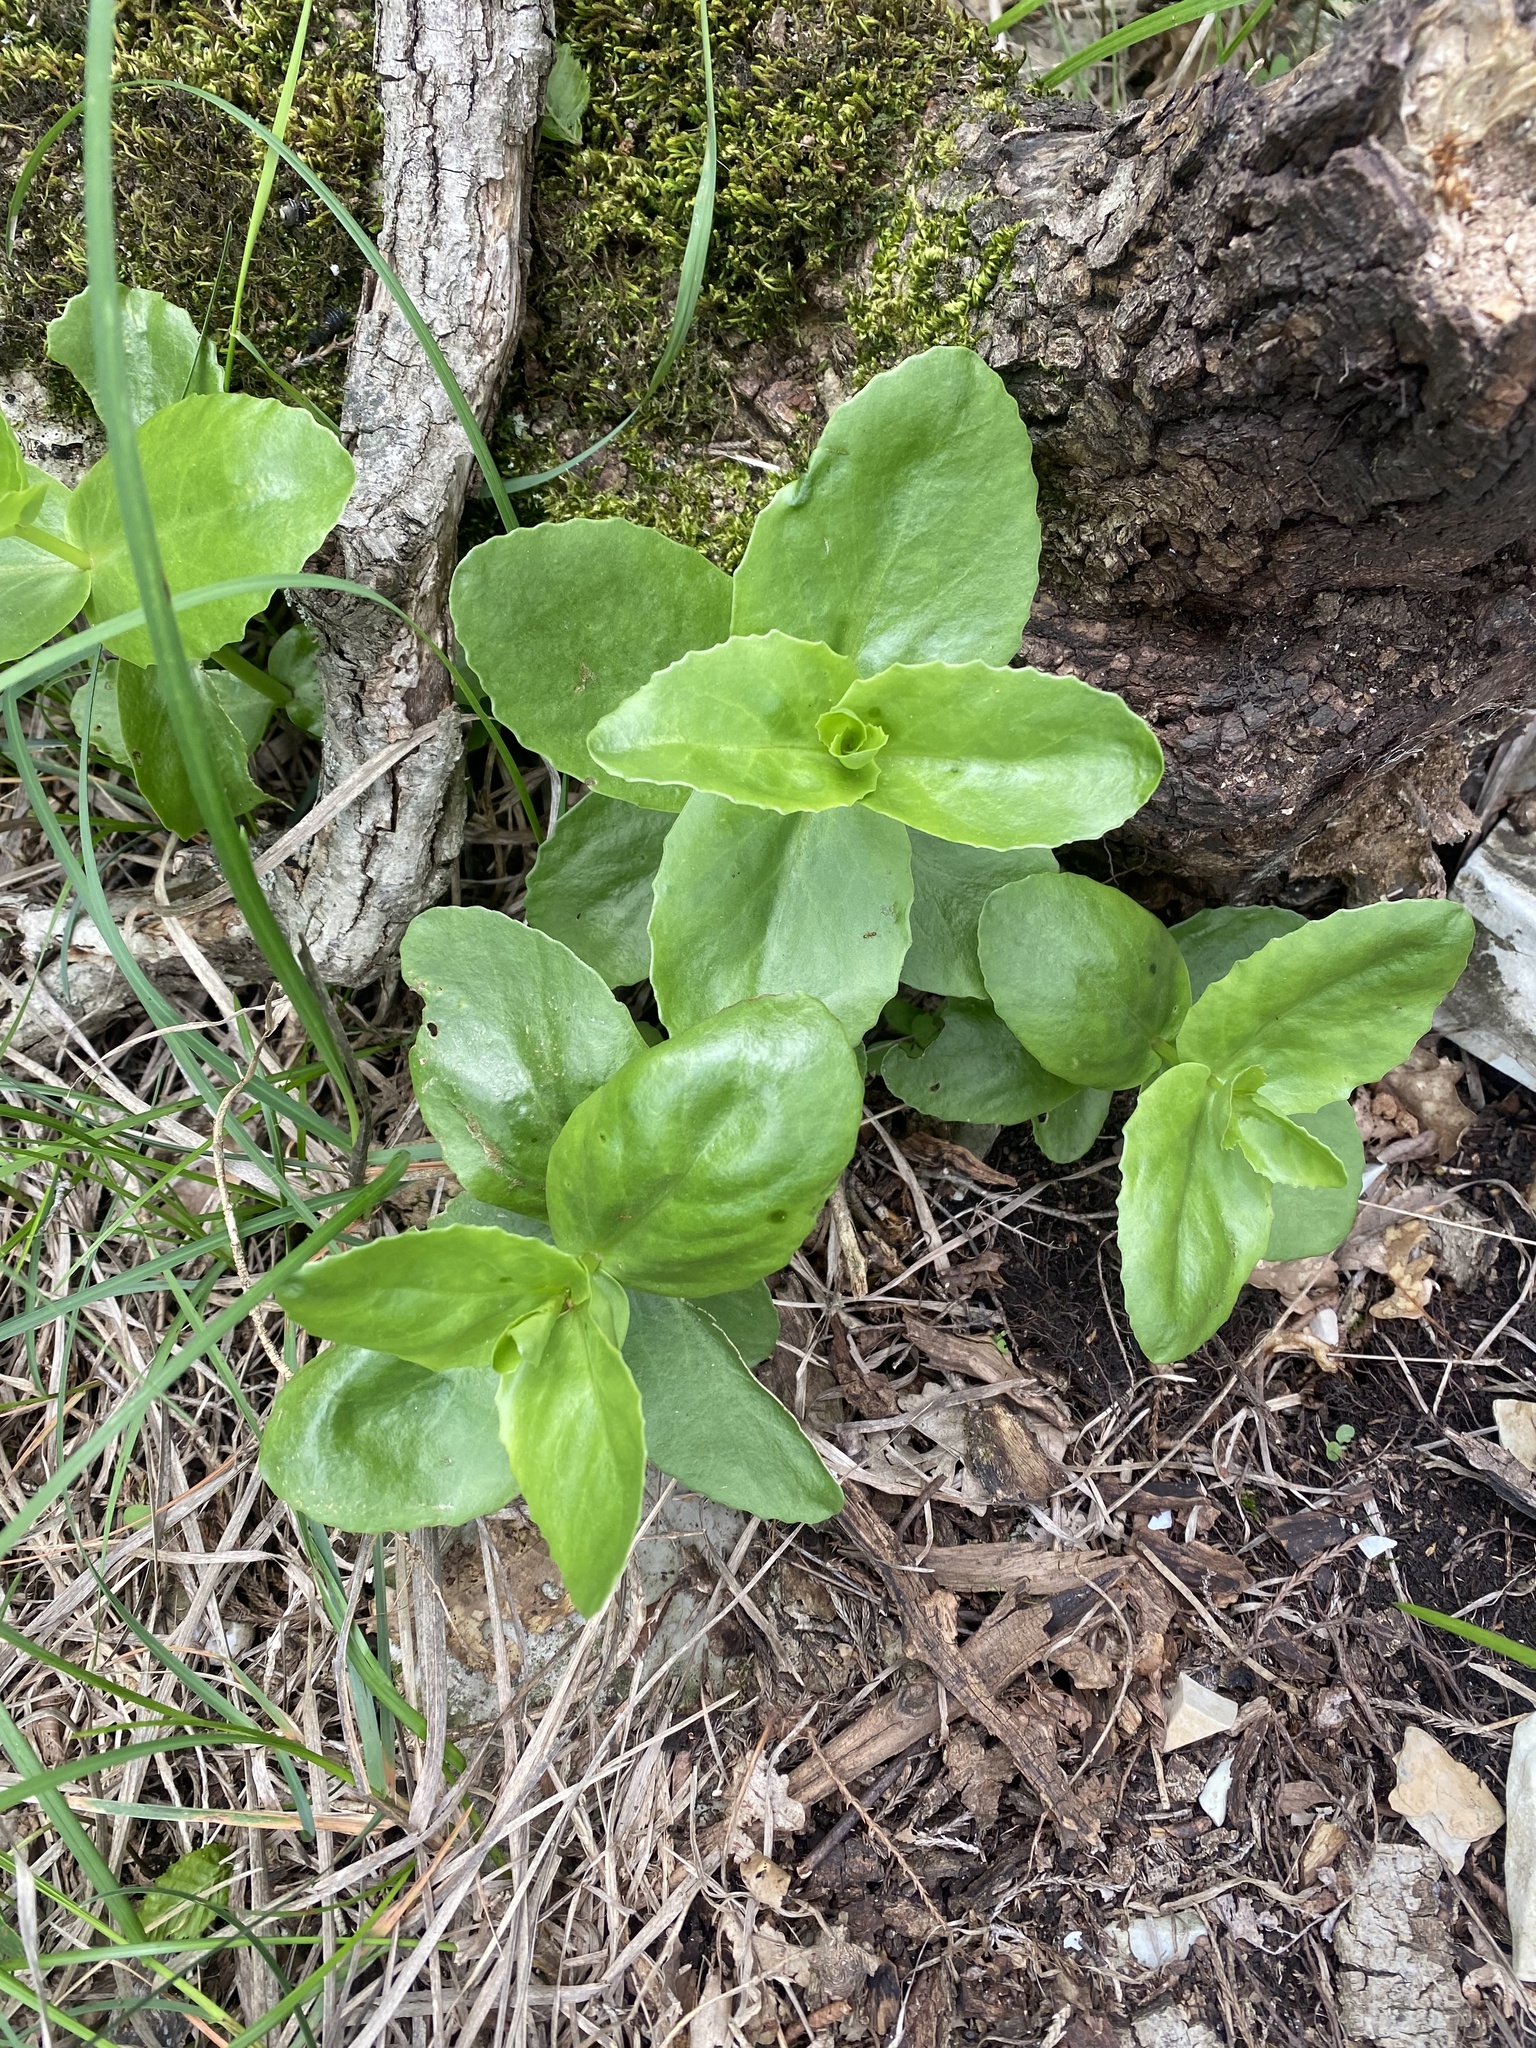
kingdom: Plantae
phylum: Tracheophyta
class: Magnoliopsida
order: Saxifragales
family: Crassulaceae
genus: Hylotelephium
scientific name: Hylotelephium maximum
